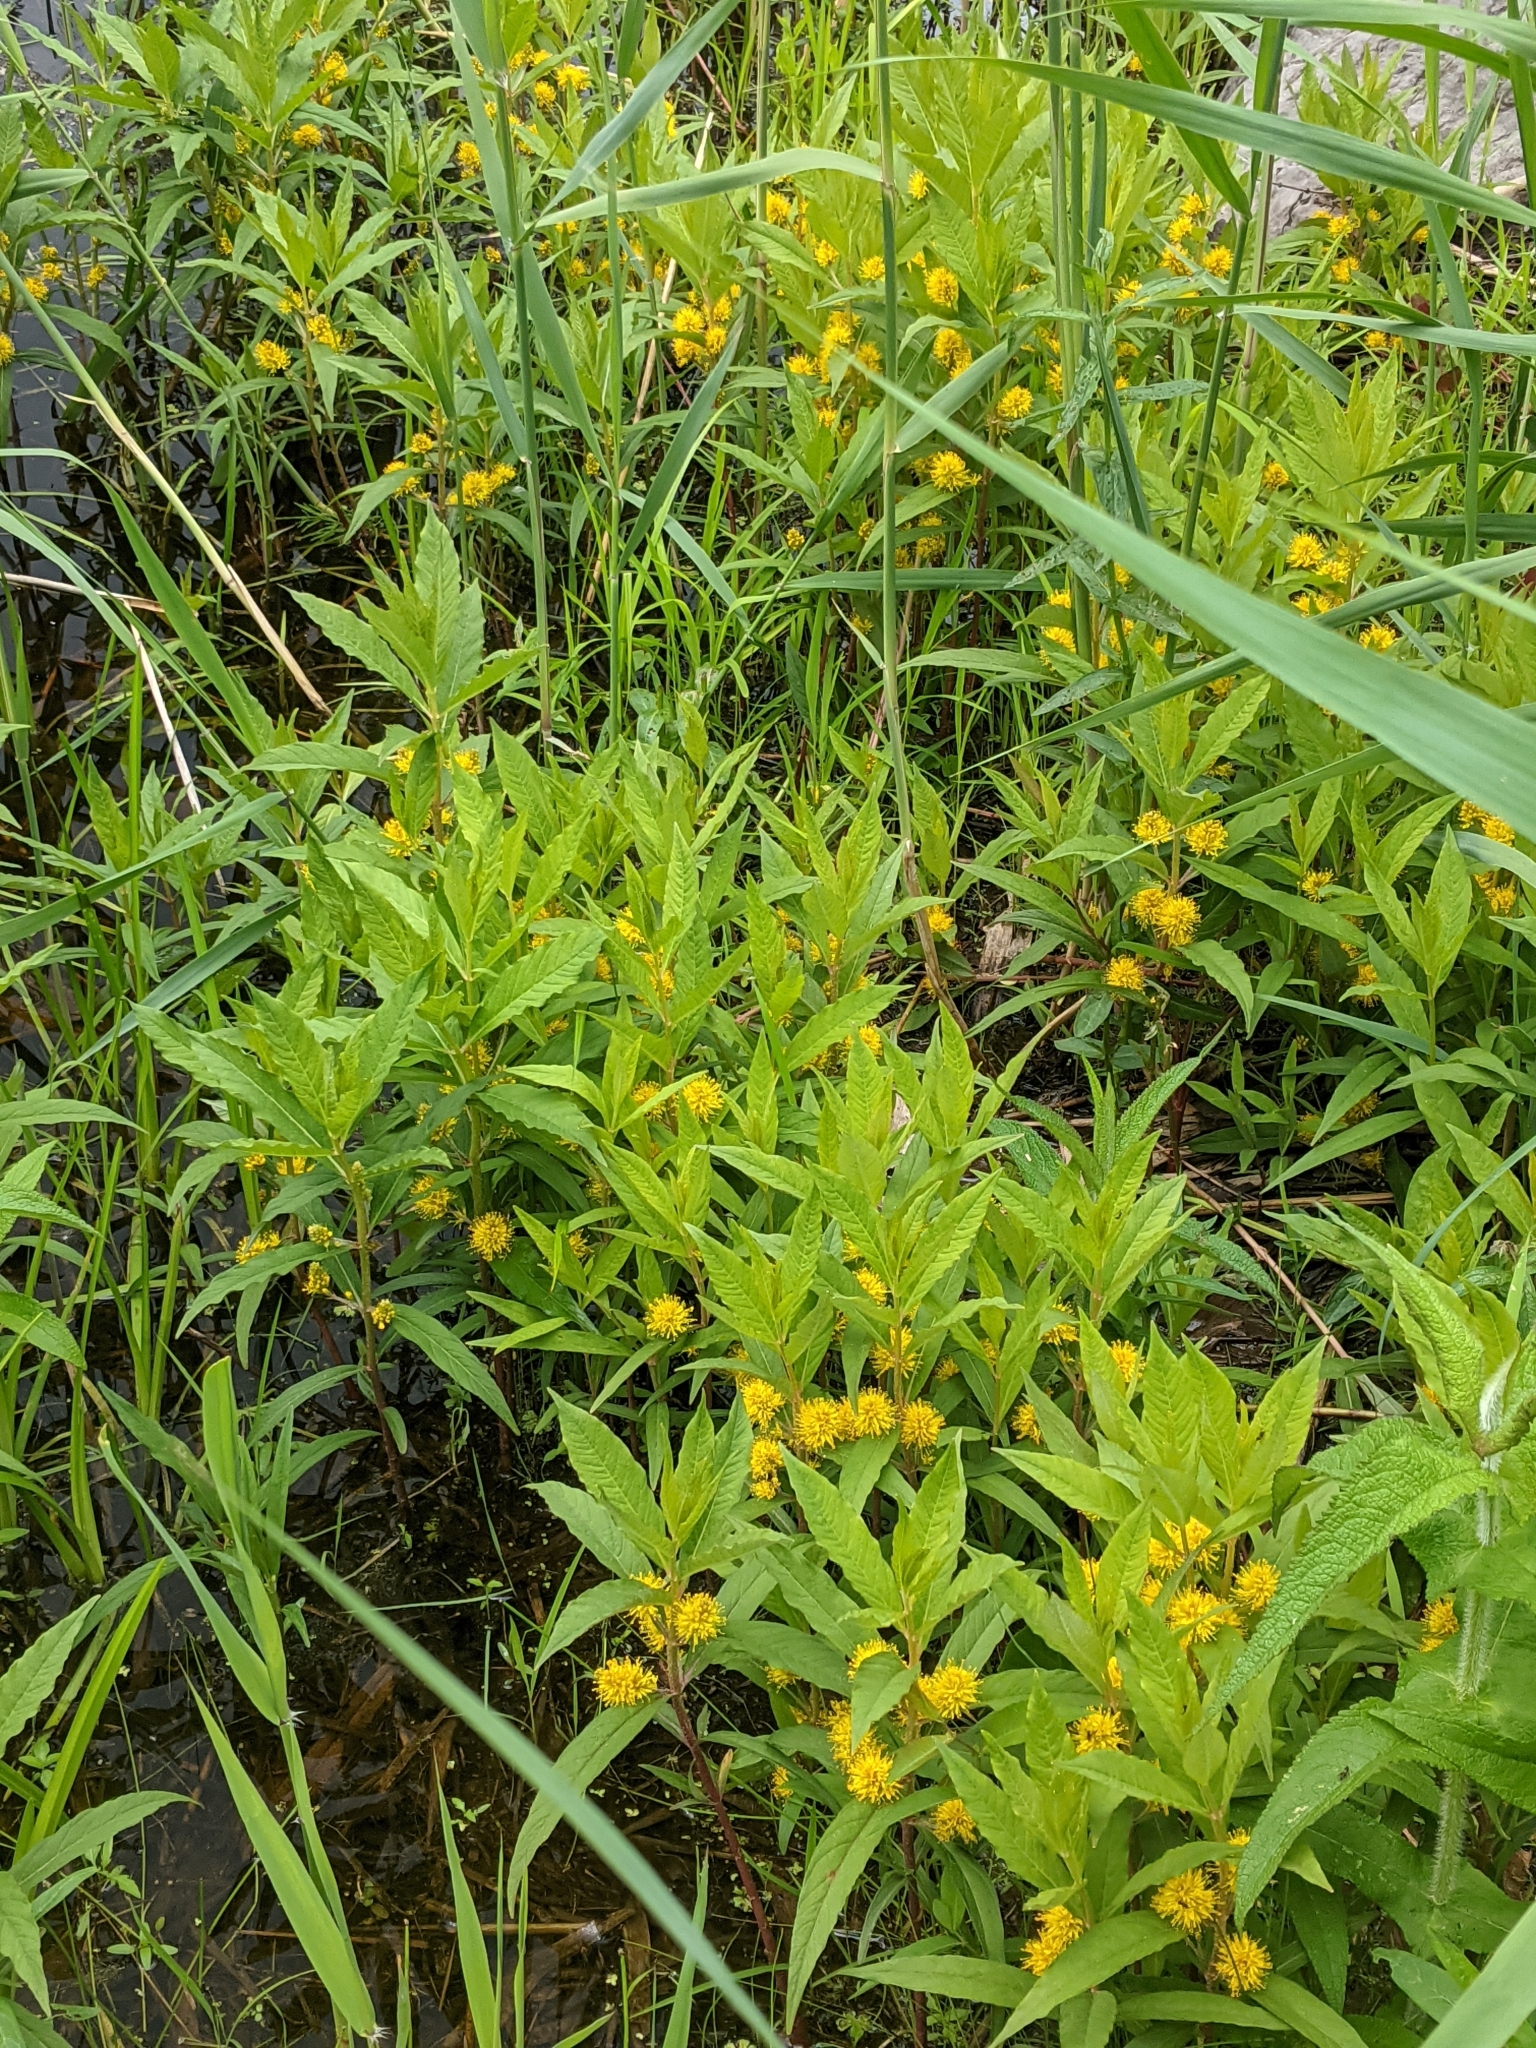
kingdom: Plantae
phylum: Tracheophyta
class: Magnoliopsida
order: Ericales
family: Primulaceae
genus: Lysimachia
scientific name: Lysimachia thyrsiflora
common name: Tufted loosestrife
